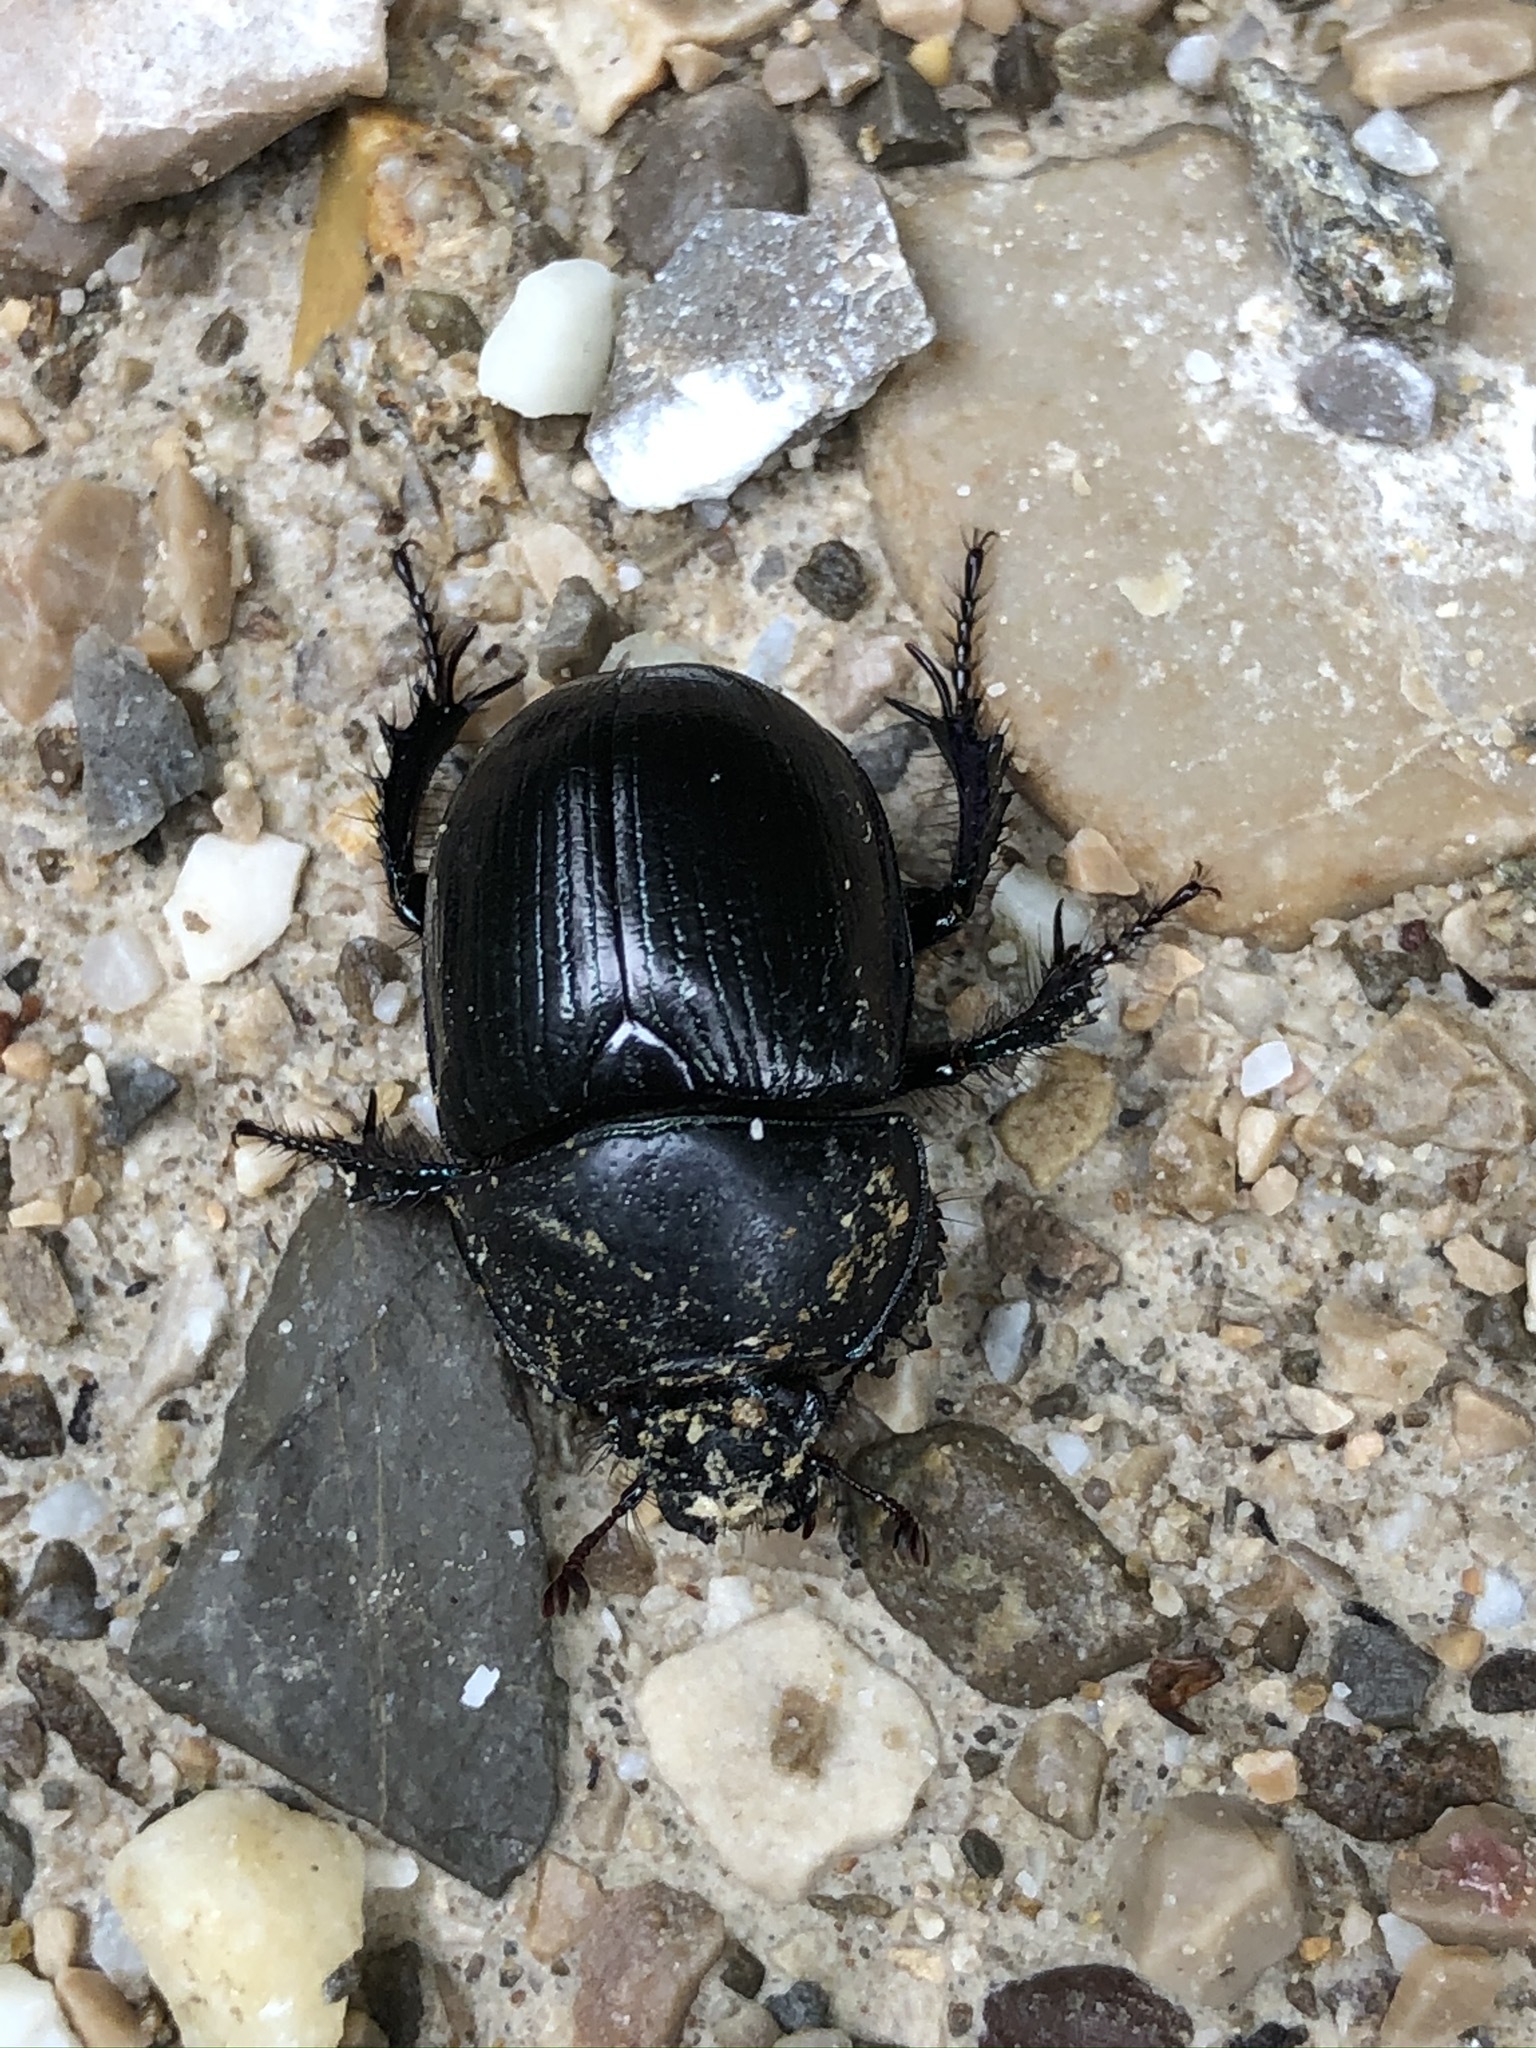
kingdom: Animalia
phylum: Arthropoda
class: Insecta
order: Coleoptera
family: Geotrupidae
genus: Anoplotrupes
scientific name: Anoplotrupes stercorosus
